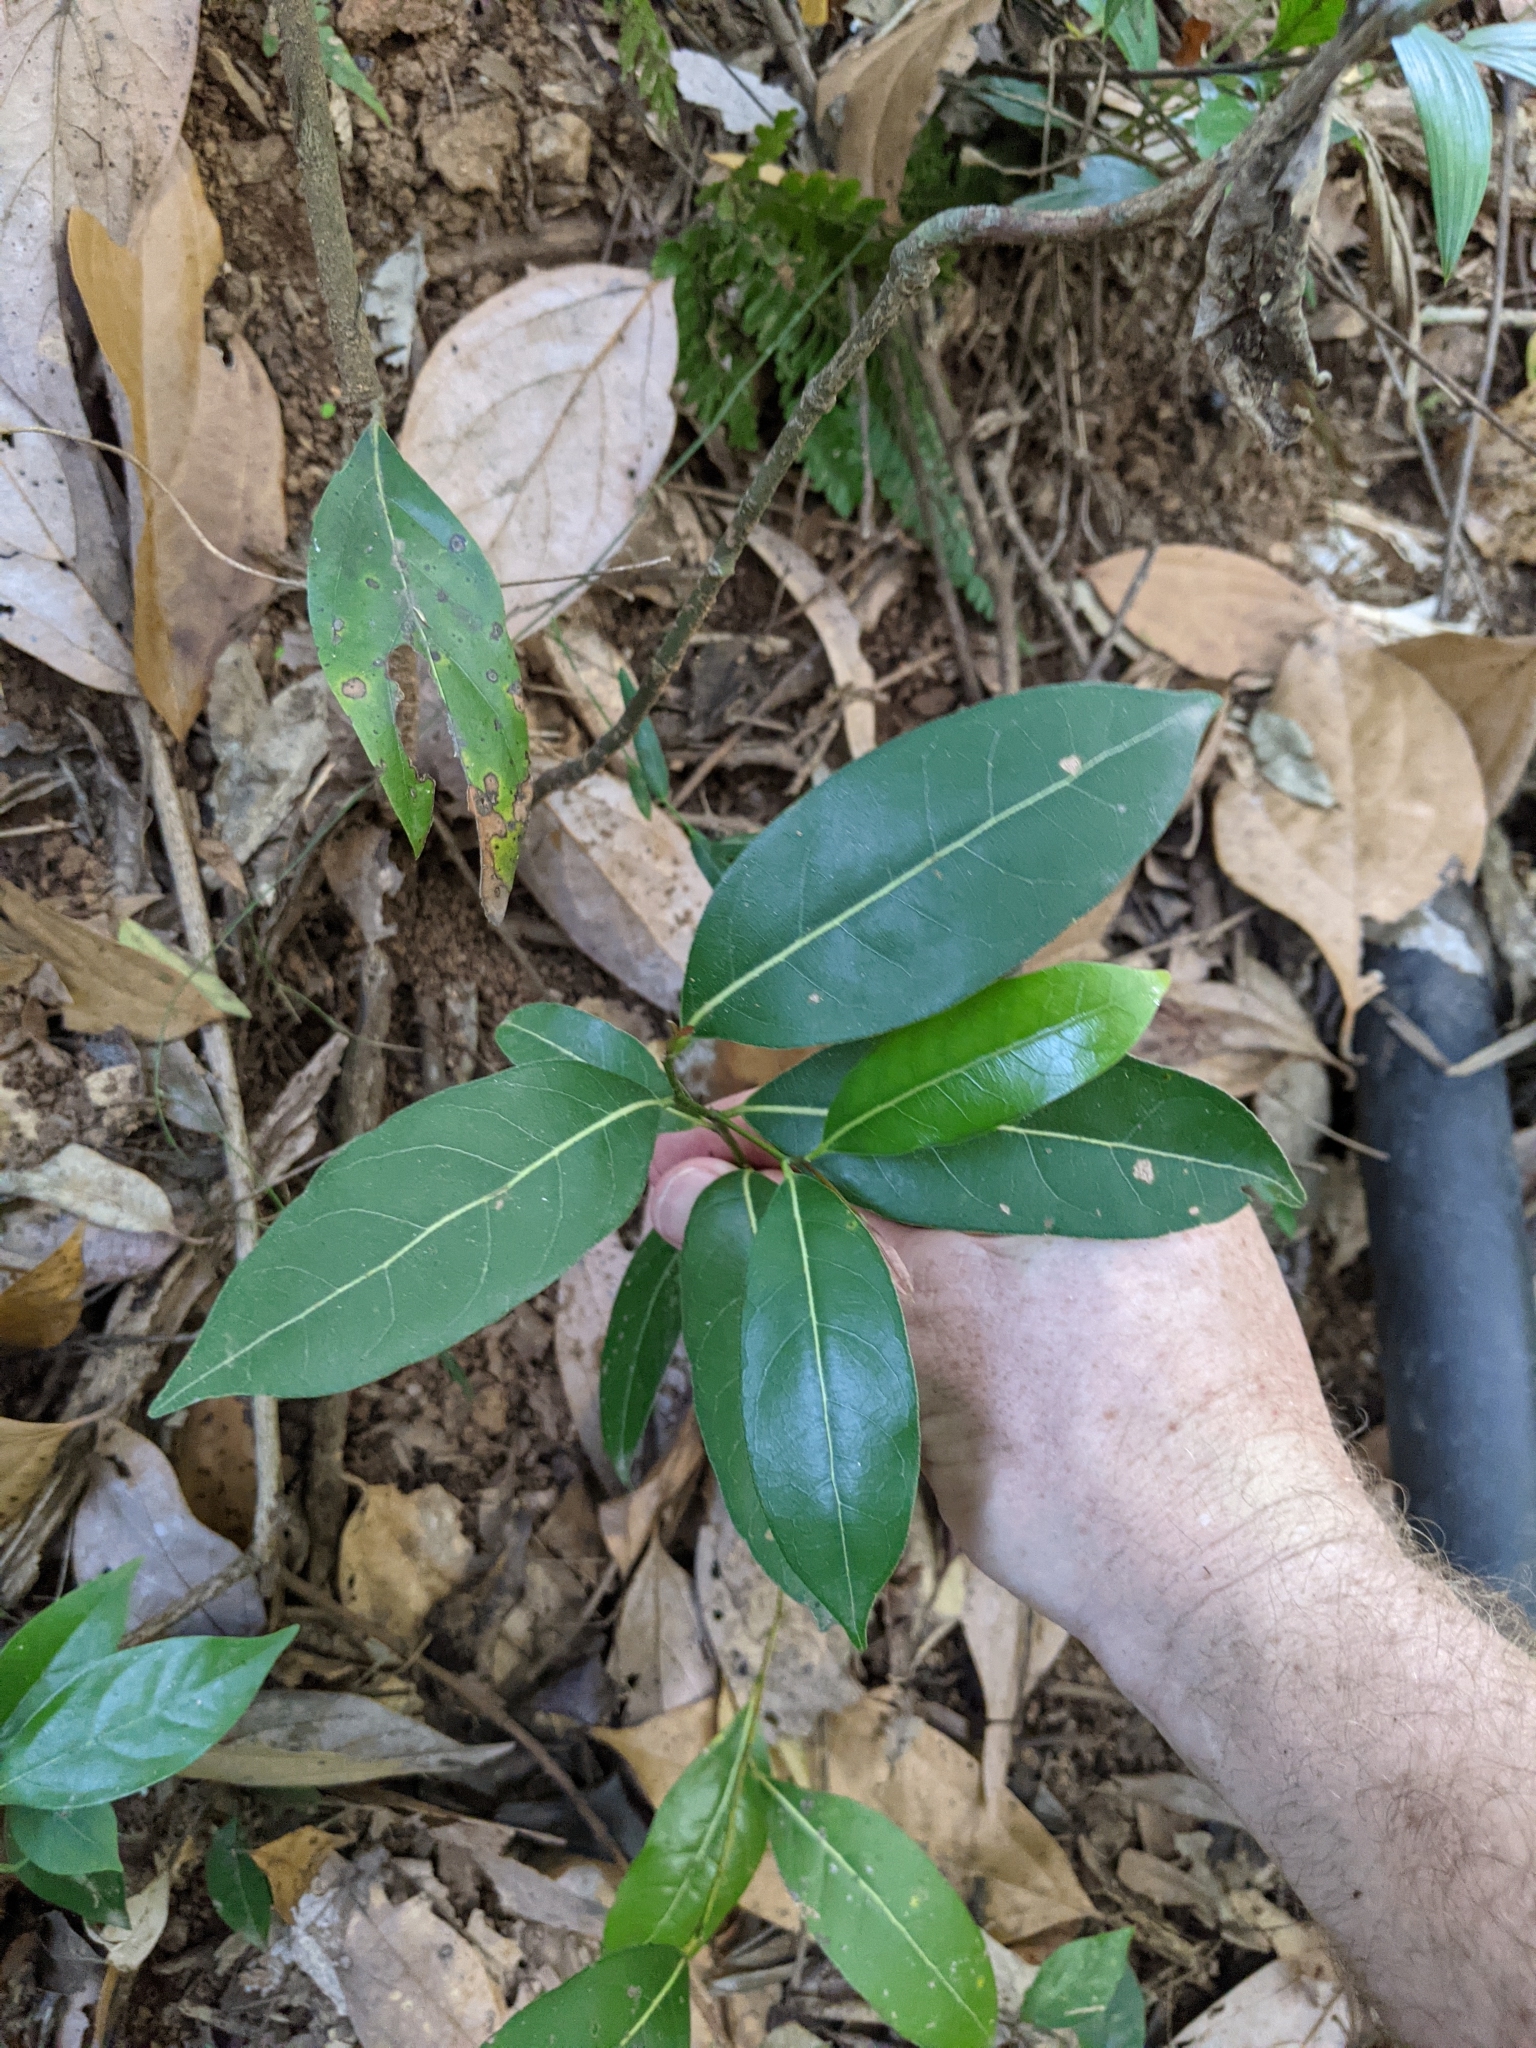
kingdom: Plantae
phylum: Tracheophyta
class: Magnoliopsida
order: Laurales
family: Lauraceae
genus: Cryptocarya
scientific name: Cryptocarya microneura
